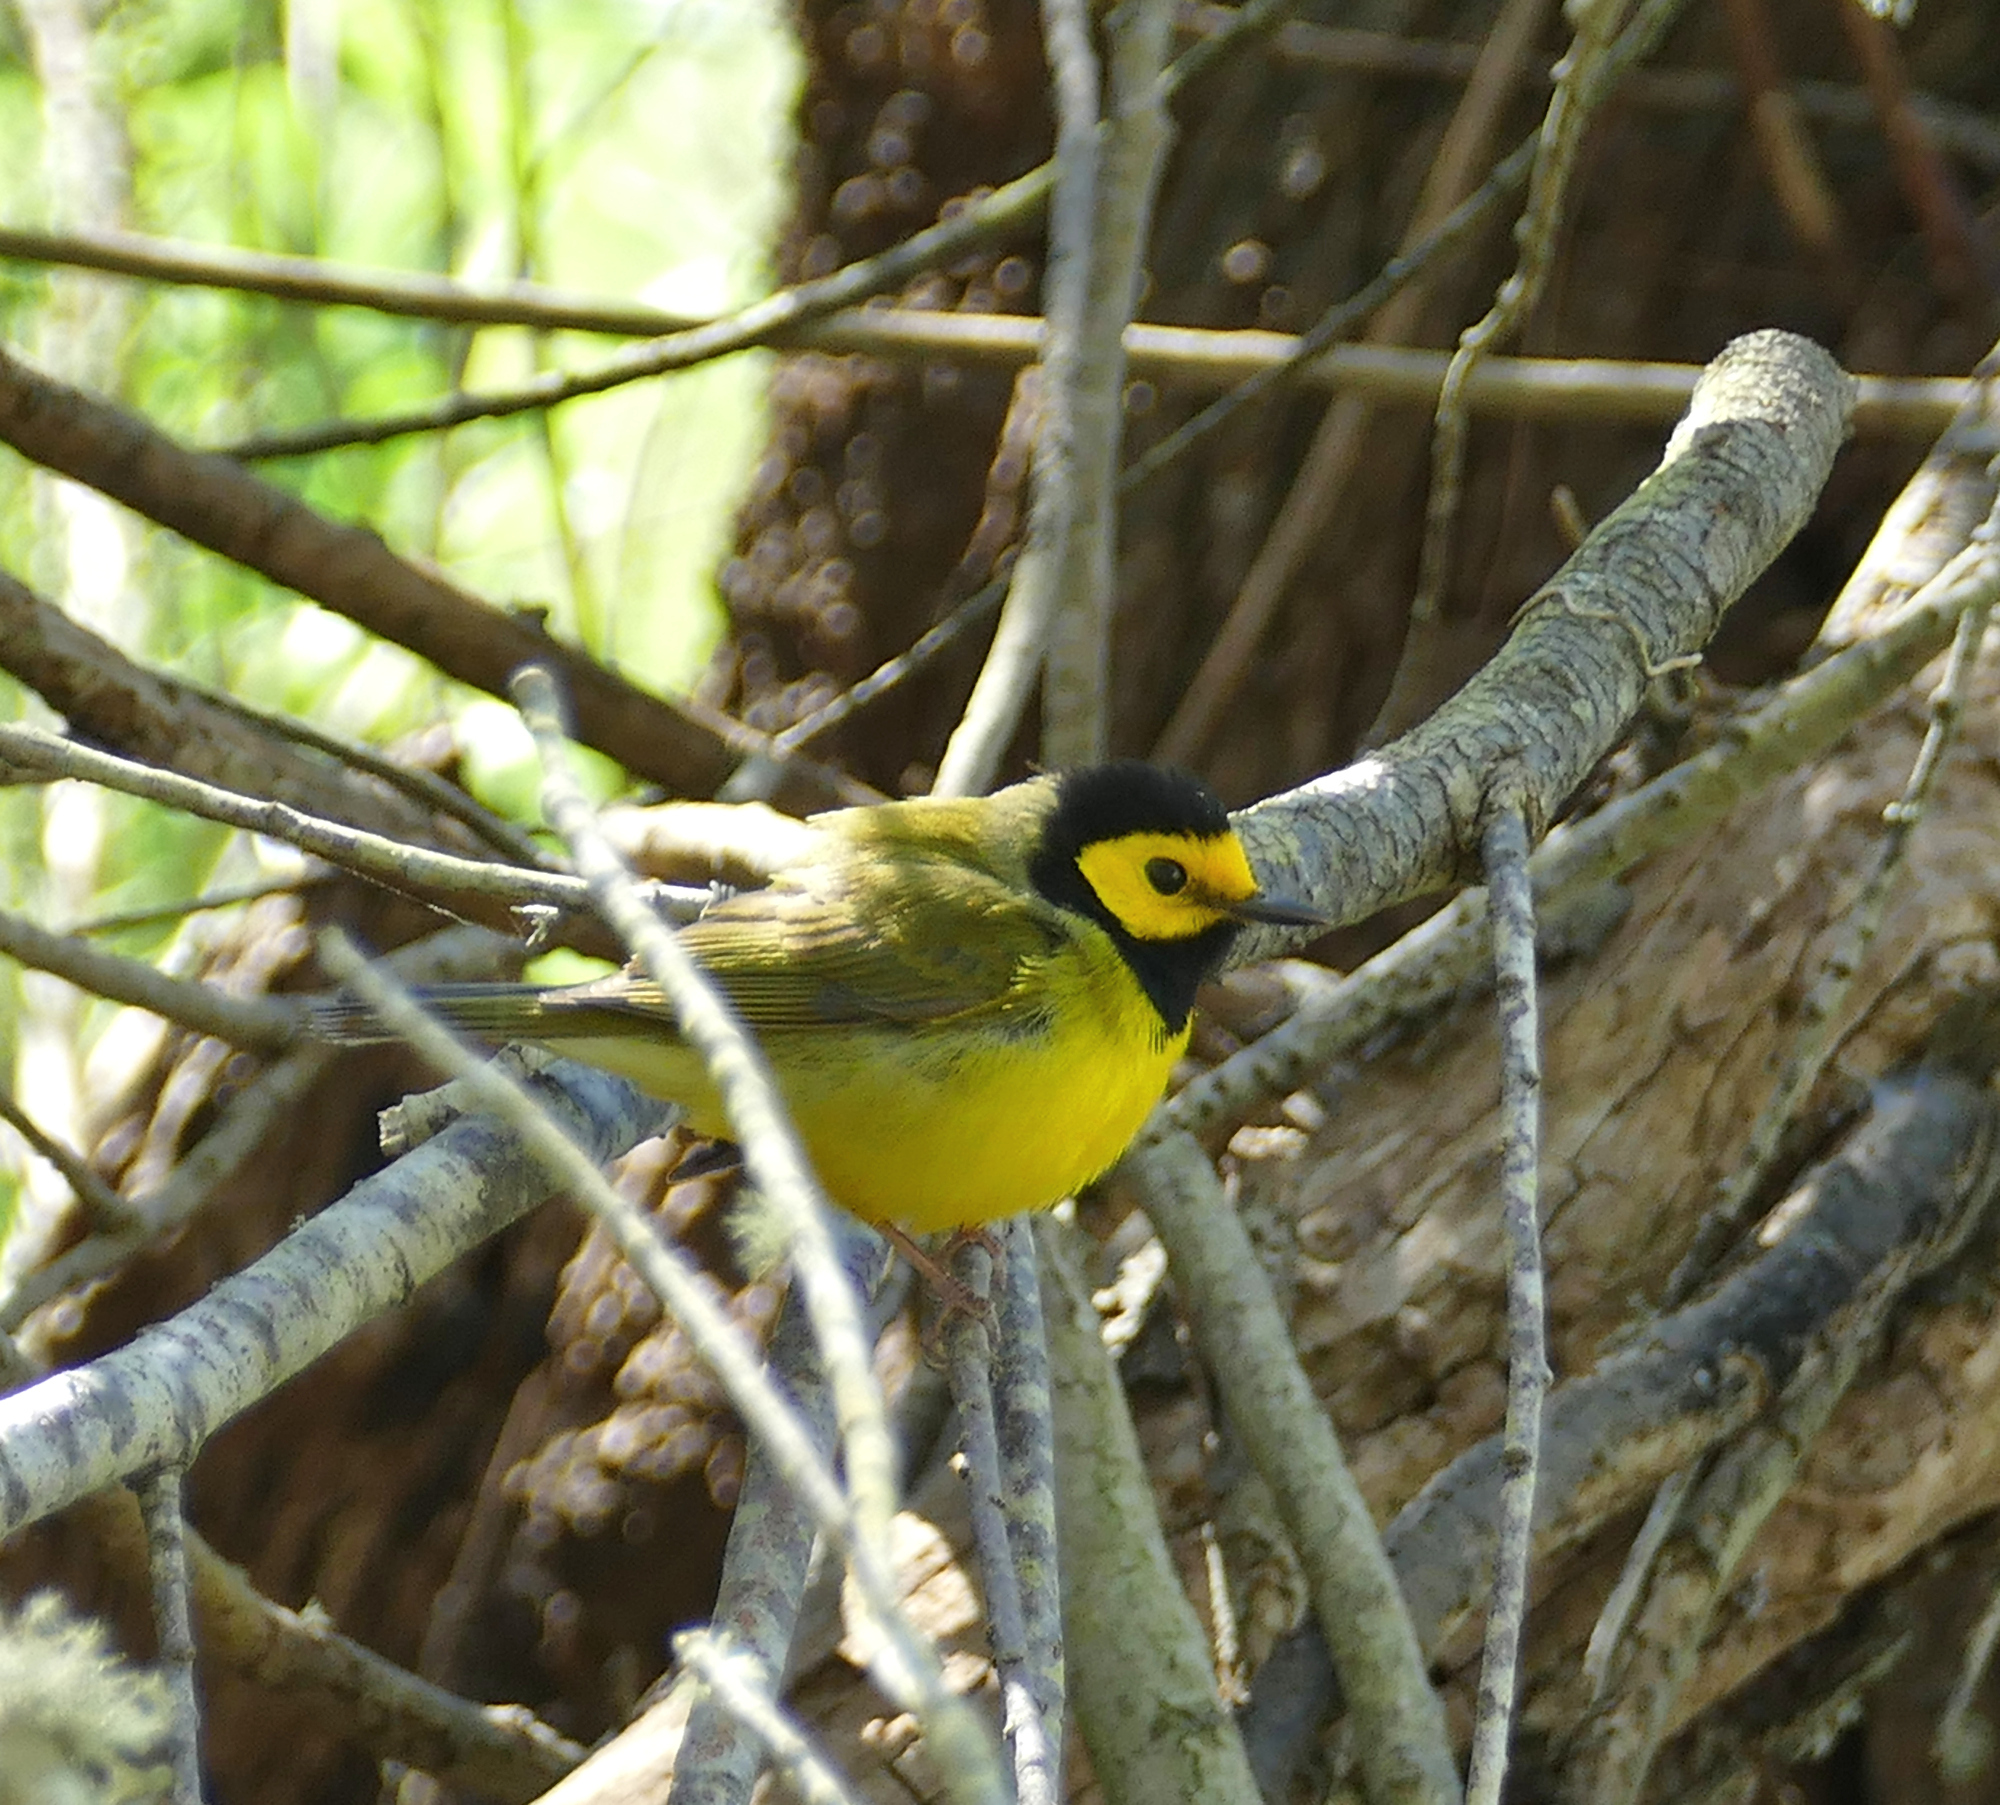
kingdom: Animalia
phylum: Chordata
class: Aves
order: Passeriformes
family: Parulidae
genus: Setophaga
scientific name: Setophaga citrina
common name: Hooded warbler
